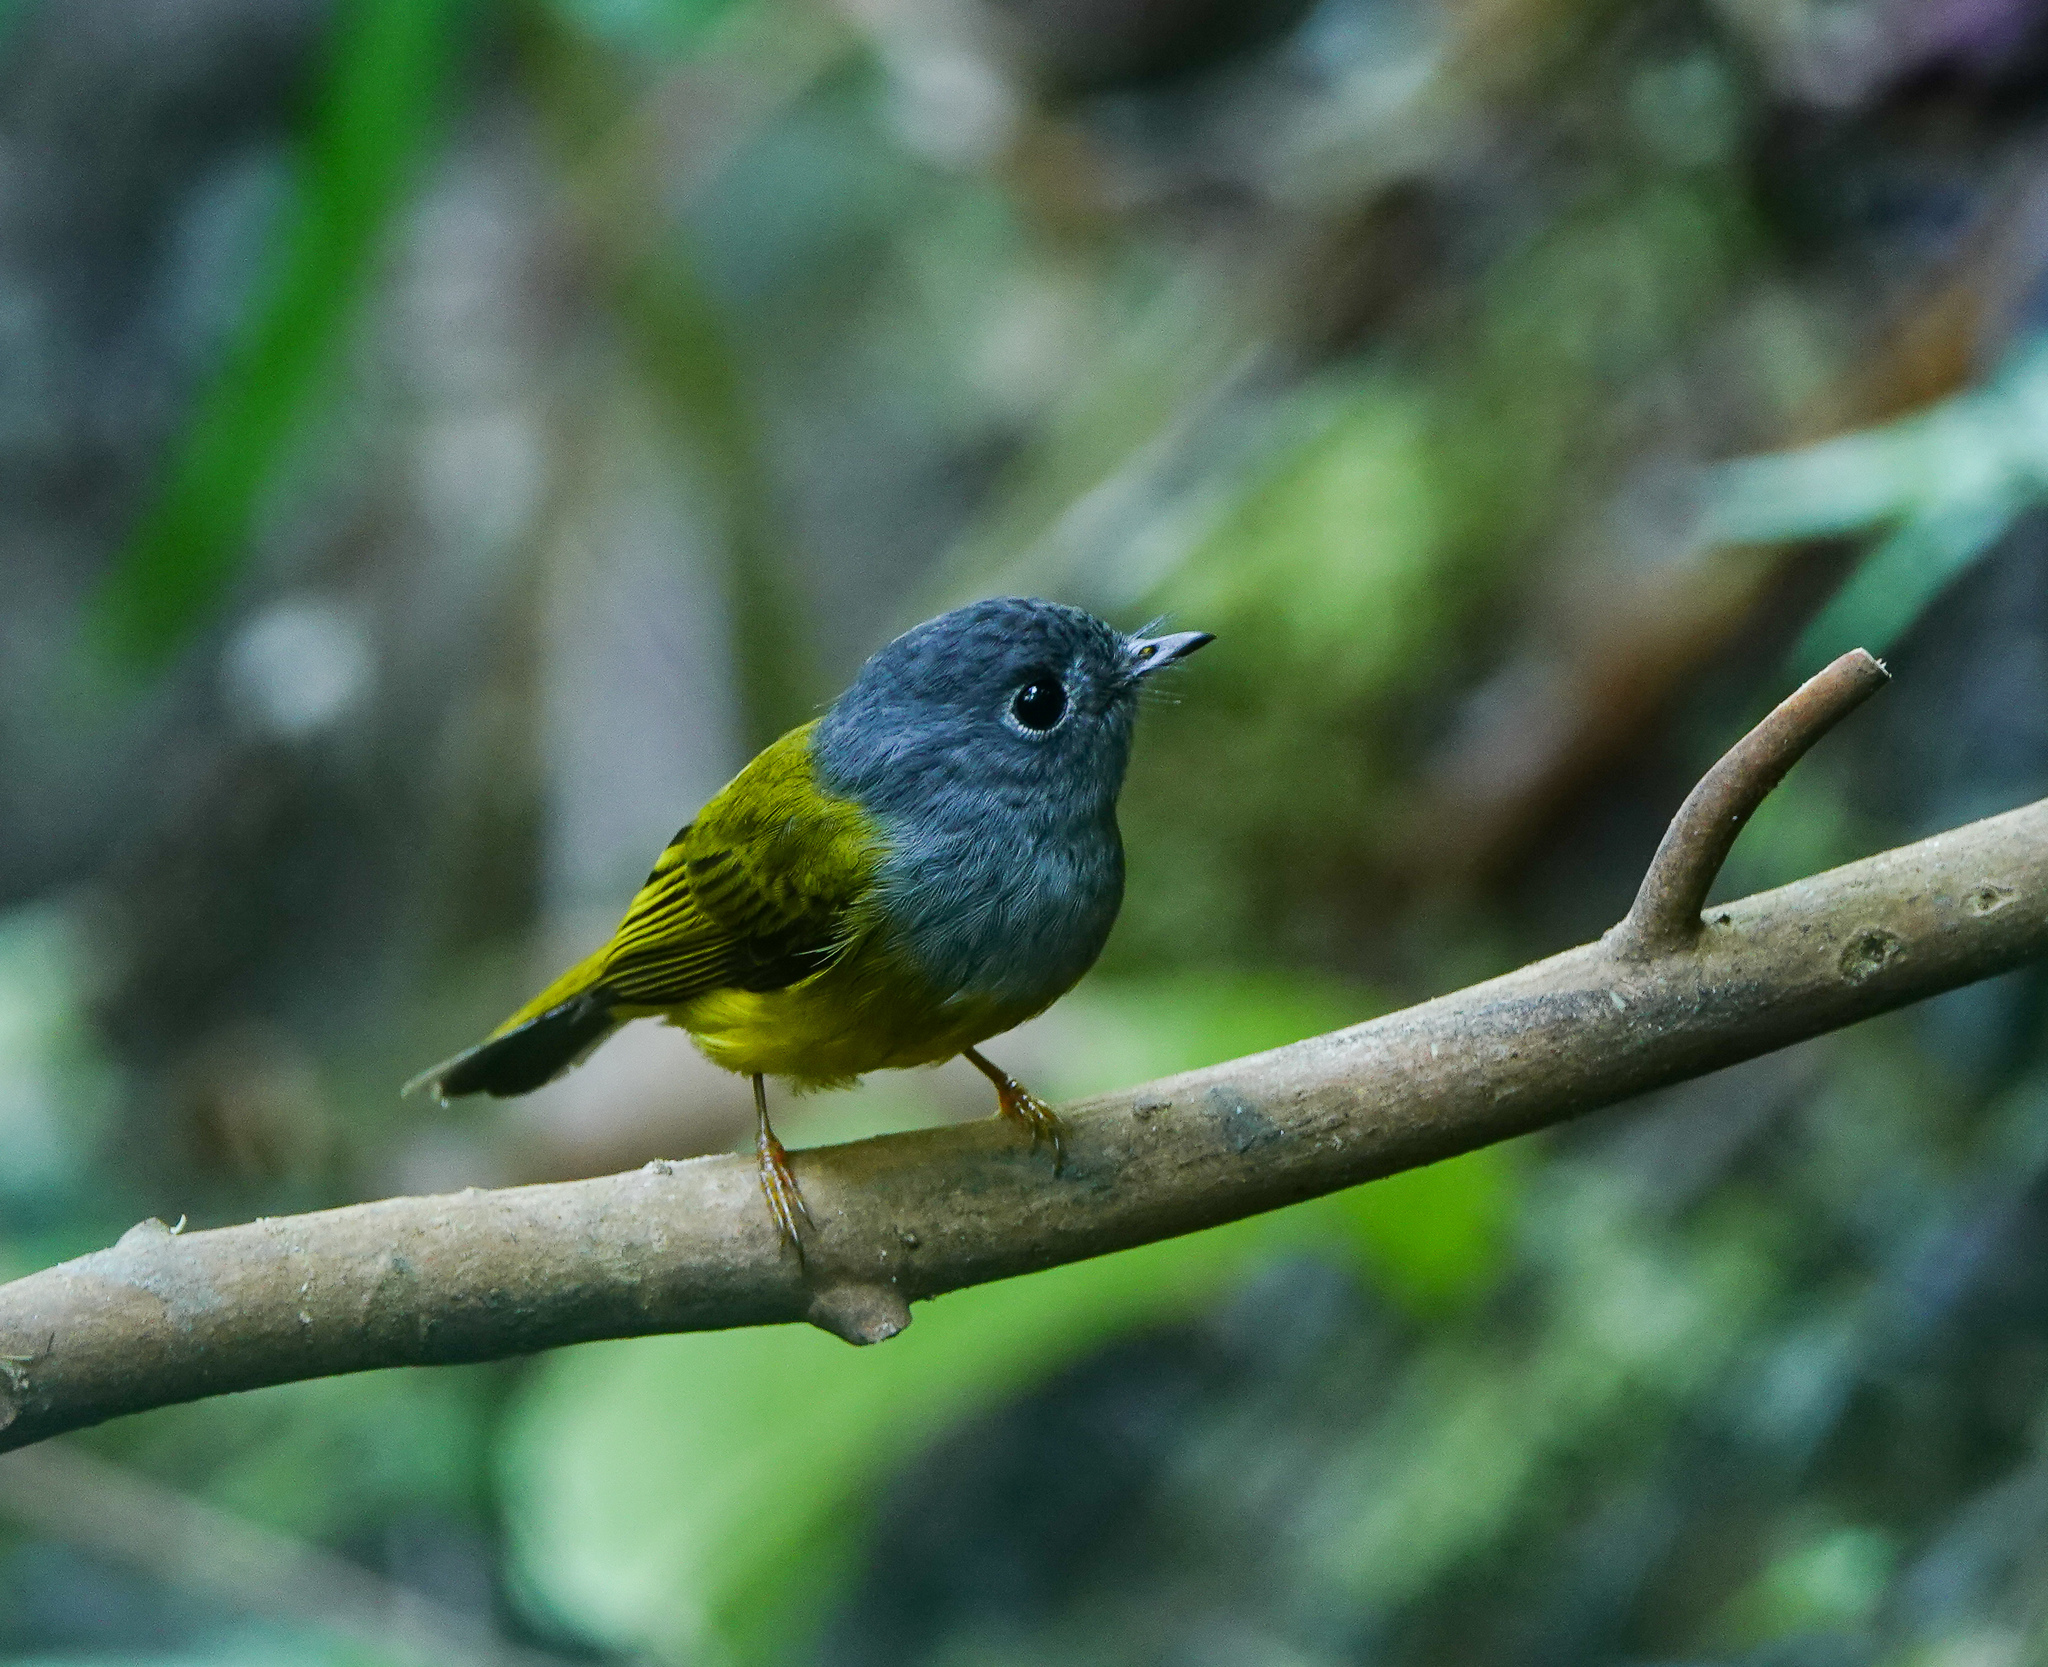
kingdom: Animalia
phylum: Chordata
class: Aves
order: Passeriformes
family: Stenostiridae
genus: Culicicapa
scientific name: Culicicapa ceylonensis
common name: Grey-headed canary-flycatcher
